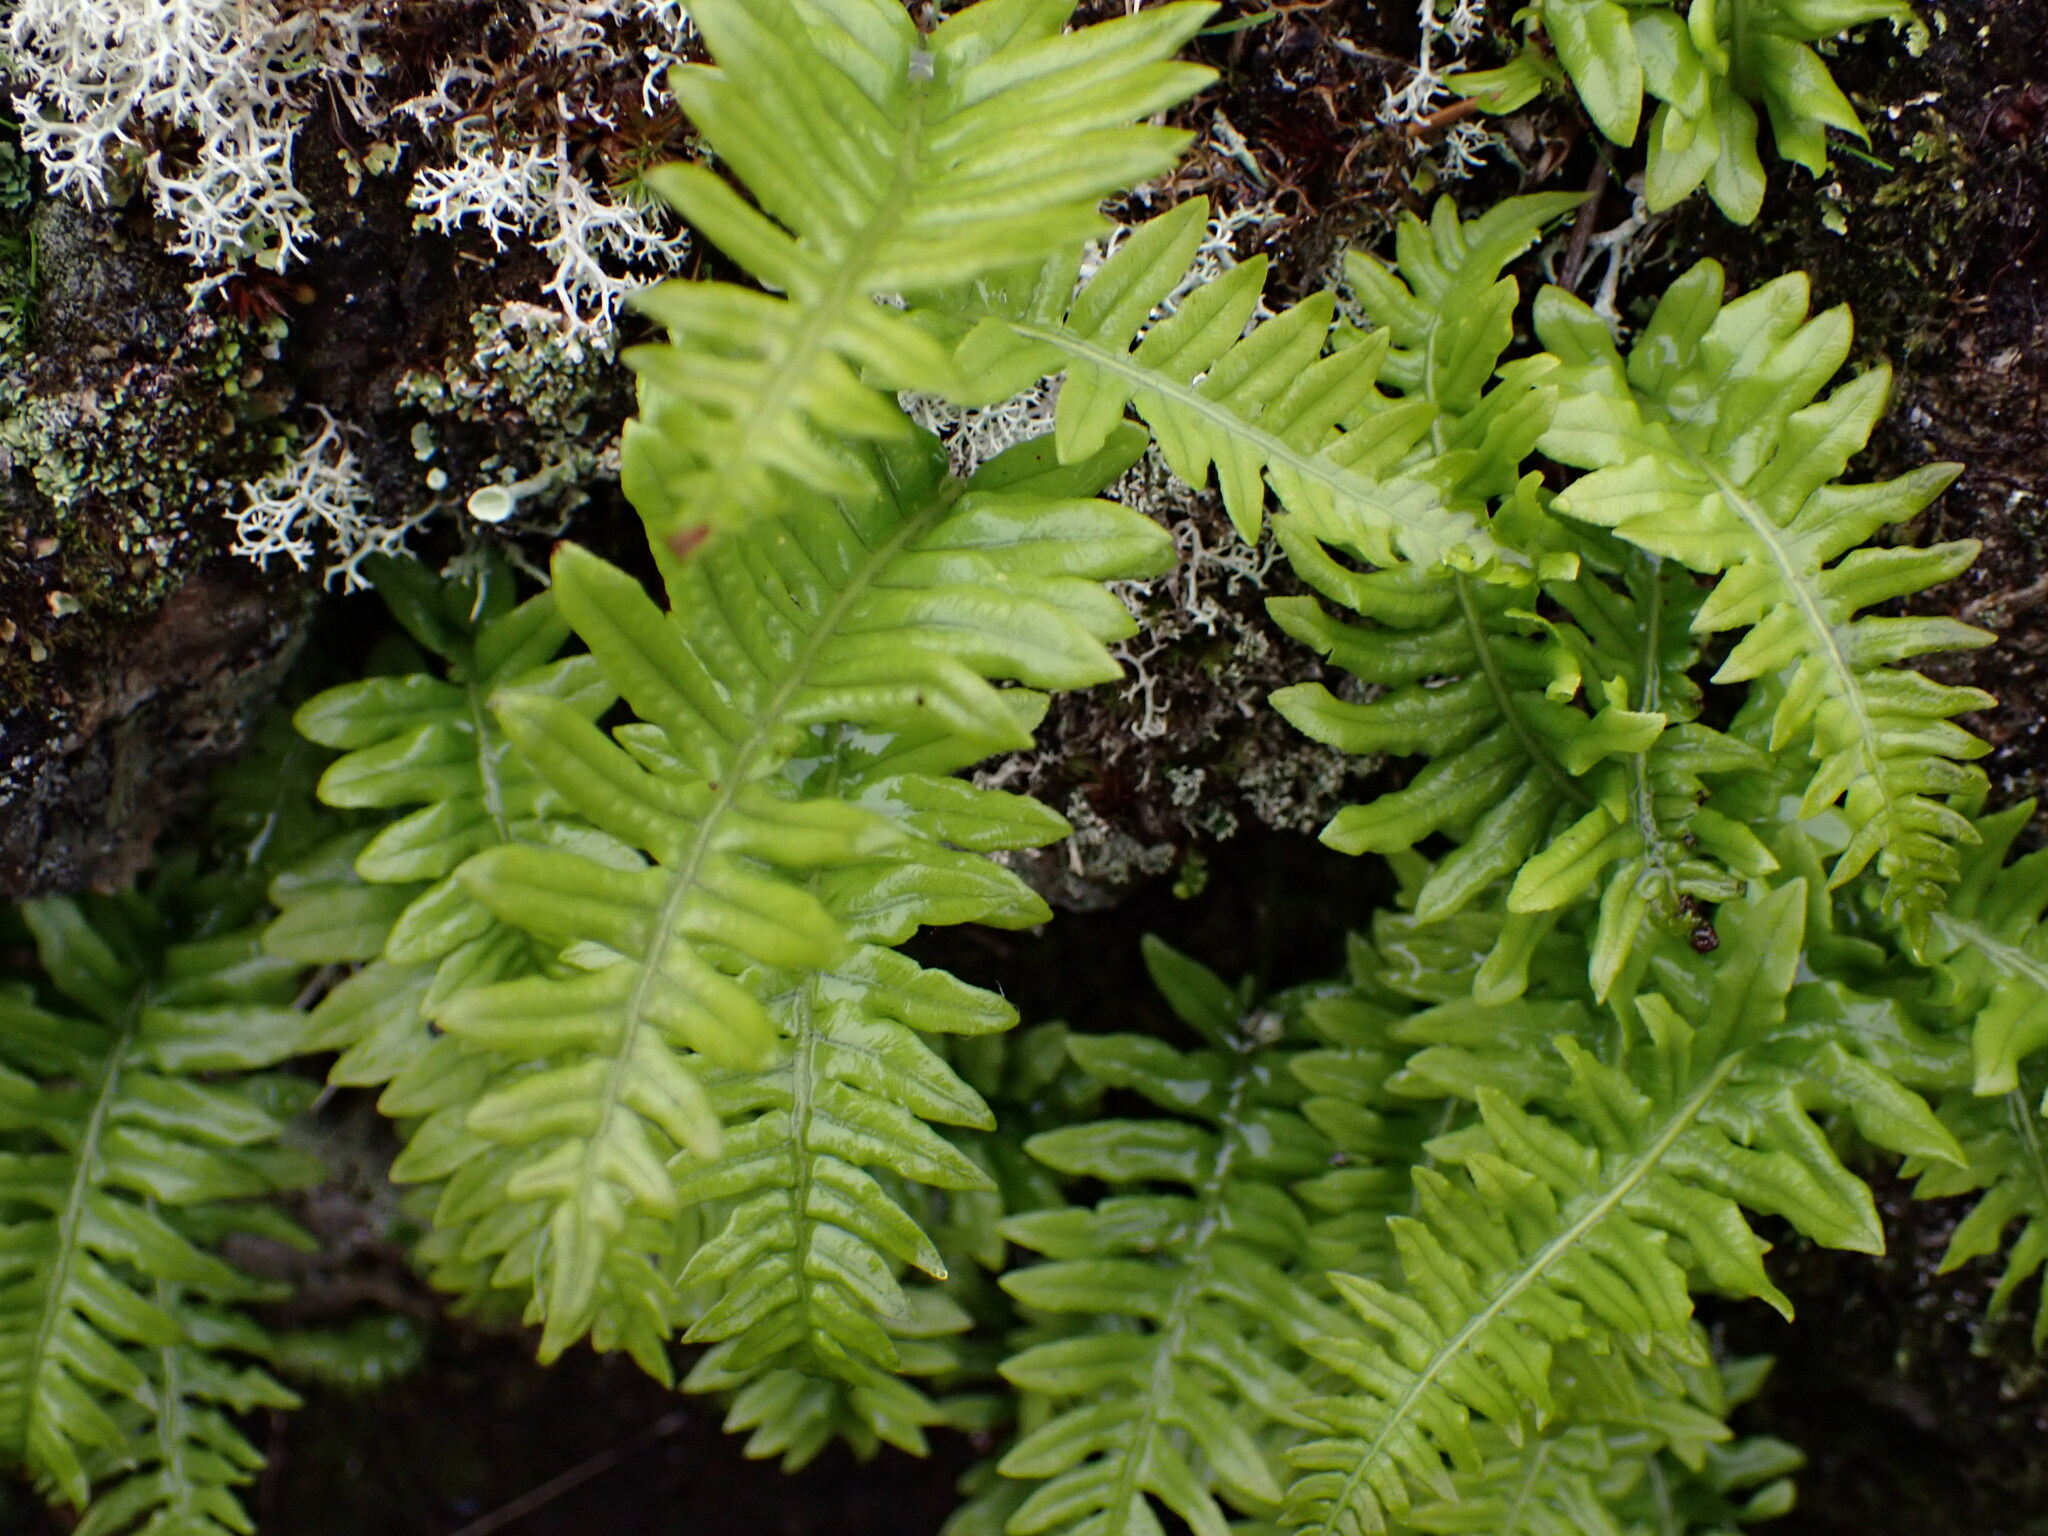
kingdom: Plantae
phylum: Tracheophyta
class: Polypodiopsida
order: Polypodiales
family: Polypodiaceae
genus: Polypodium
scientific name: Polypodium glycyrrhiza
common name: Licorice fern
